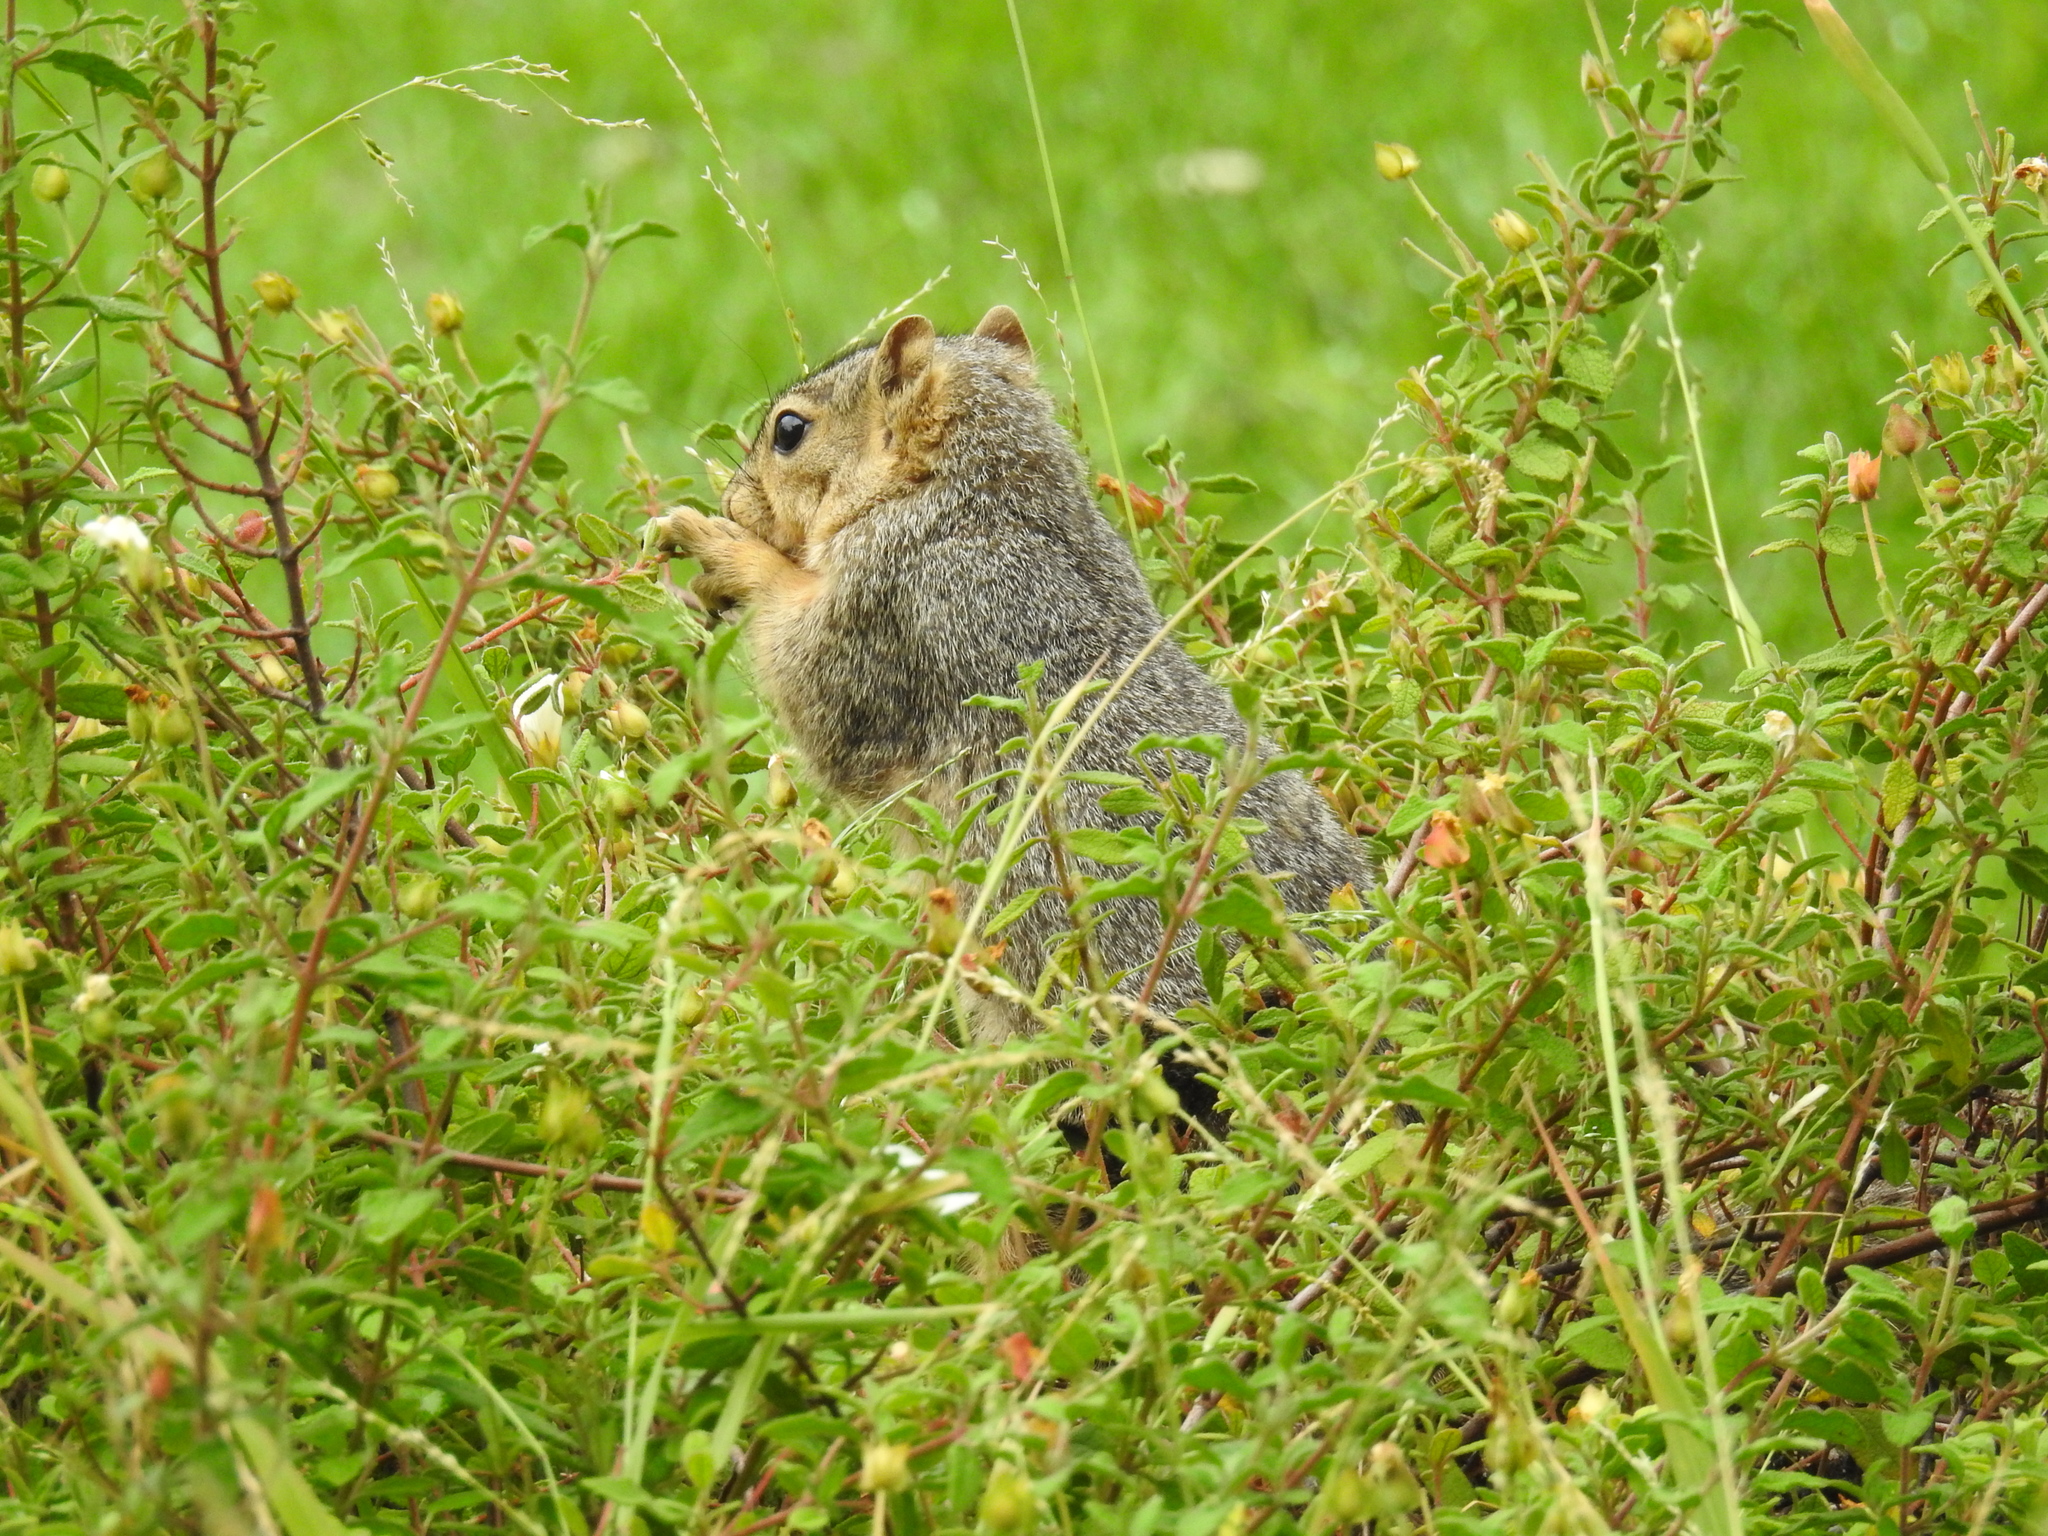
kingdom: Animalia
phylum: Chordata
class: Mammalia
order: Rodentia
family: Sciuridae
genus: Sciurus
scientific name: Sciurus niger
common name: Fox squirrel
